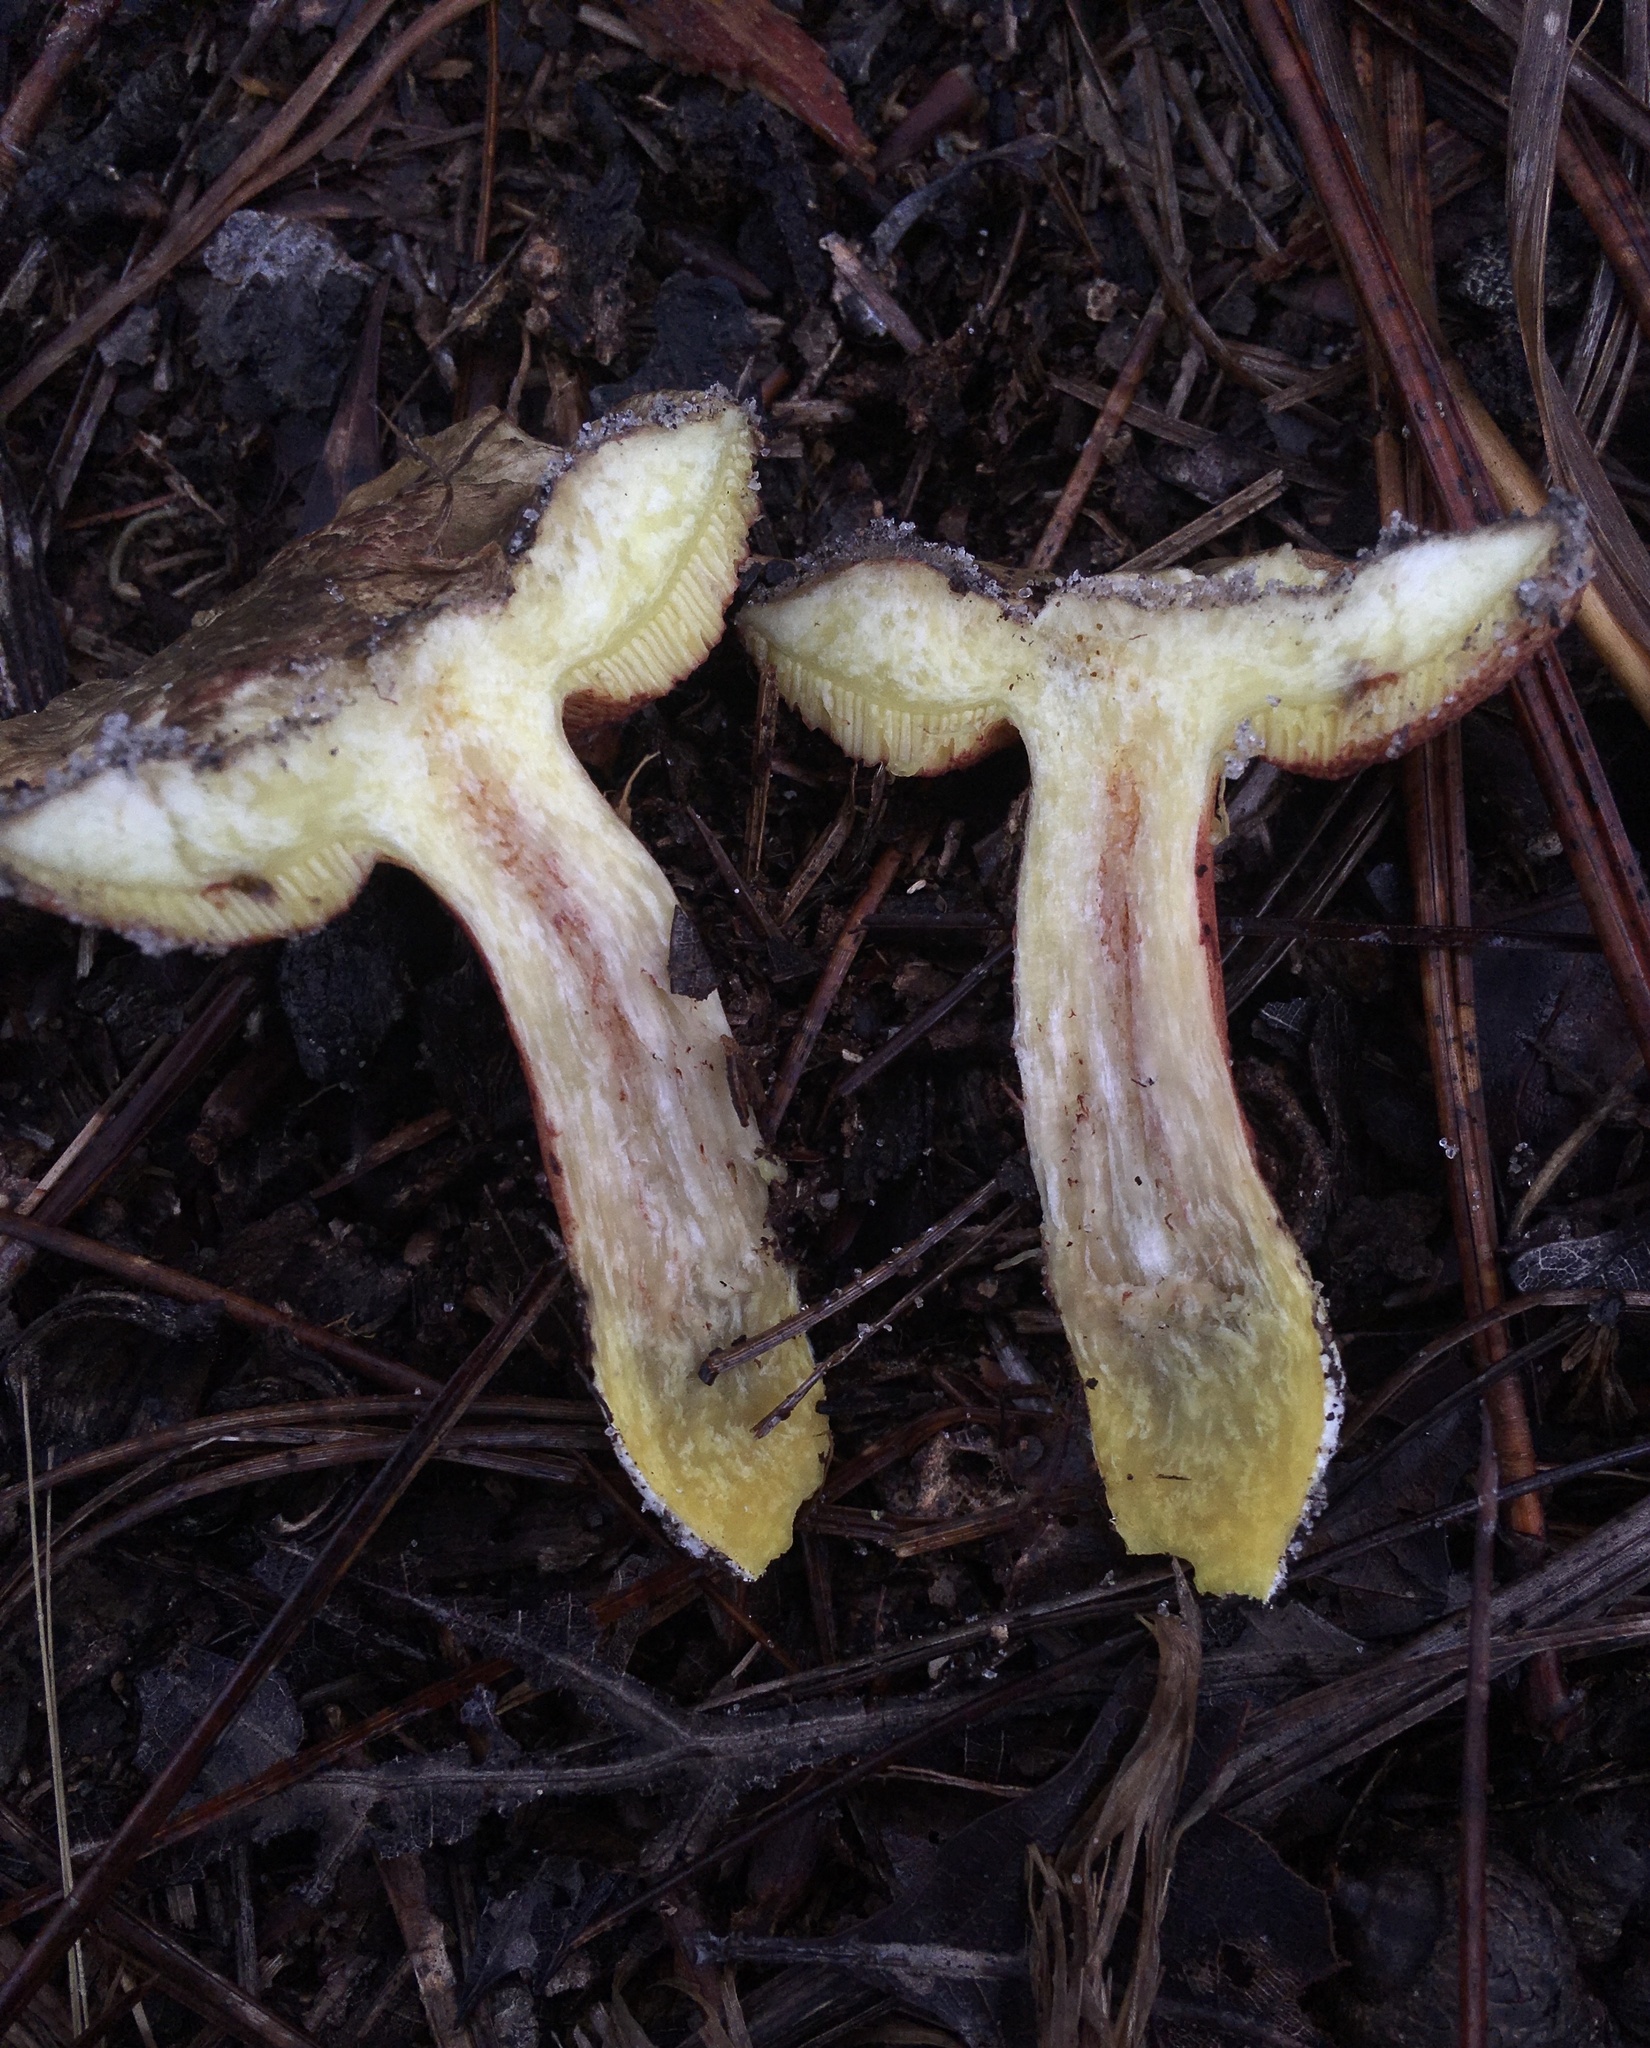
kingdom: Fungi
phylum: Basidiomycota
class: Agaricomycetes
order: Boletales
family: Boletaceae
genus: Amoenoboletus
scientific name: Amoenoboletus weberi
